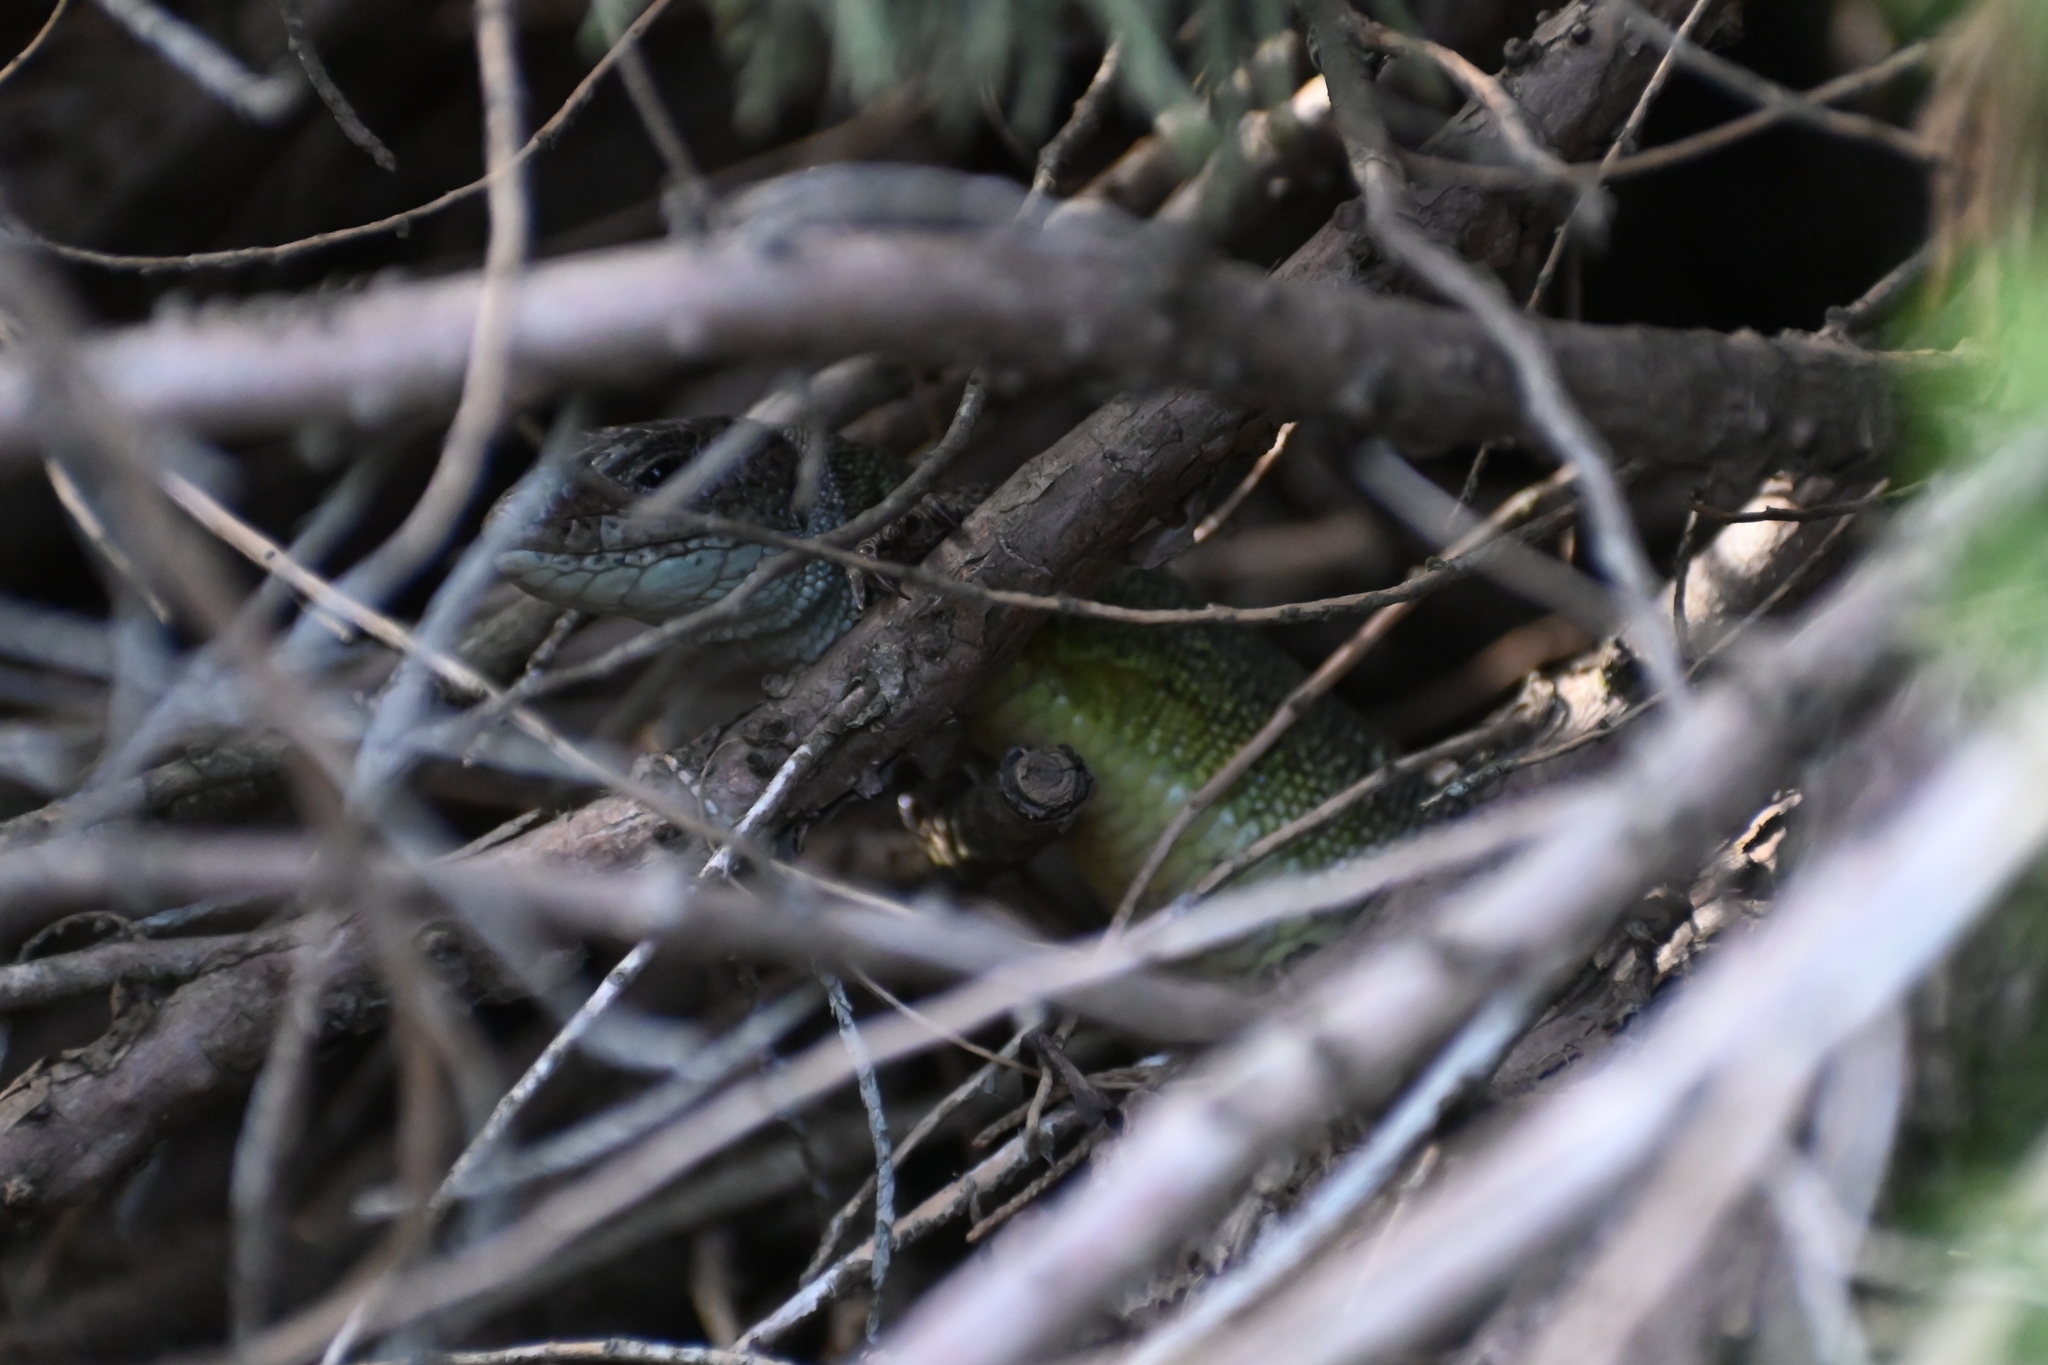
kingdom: Animalia
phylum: Chordata
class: Squamata
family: Lacertidae
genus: Lacerta
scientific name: Lacerta viridis
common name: European green lizard
